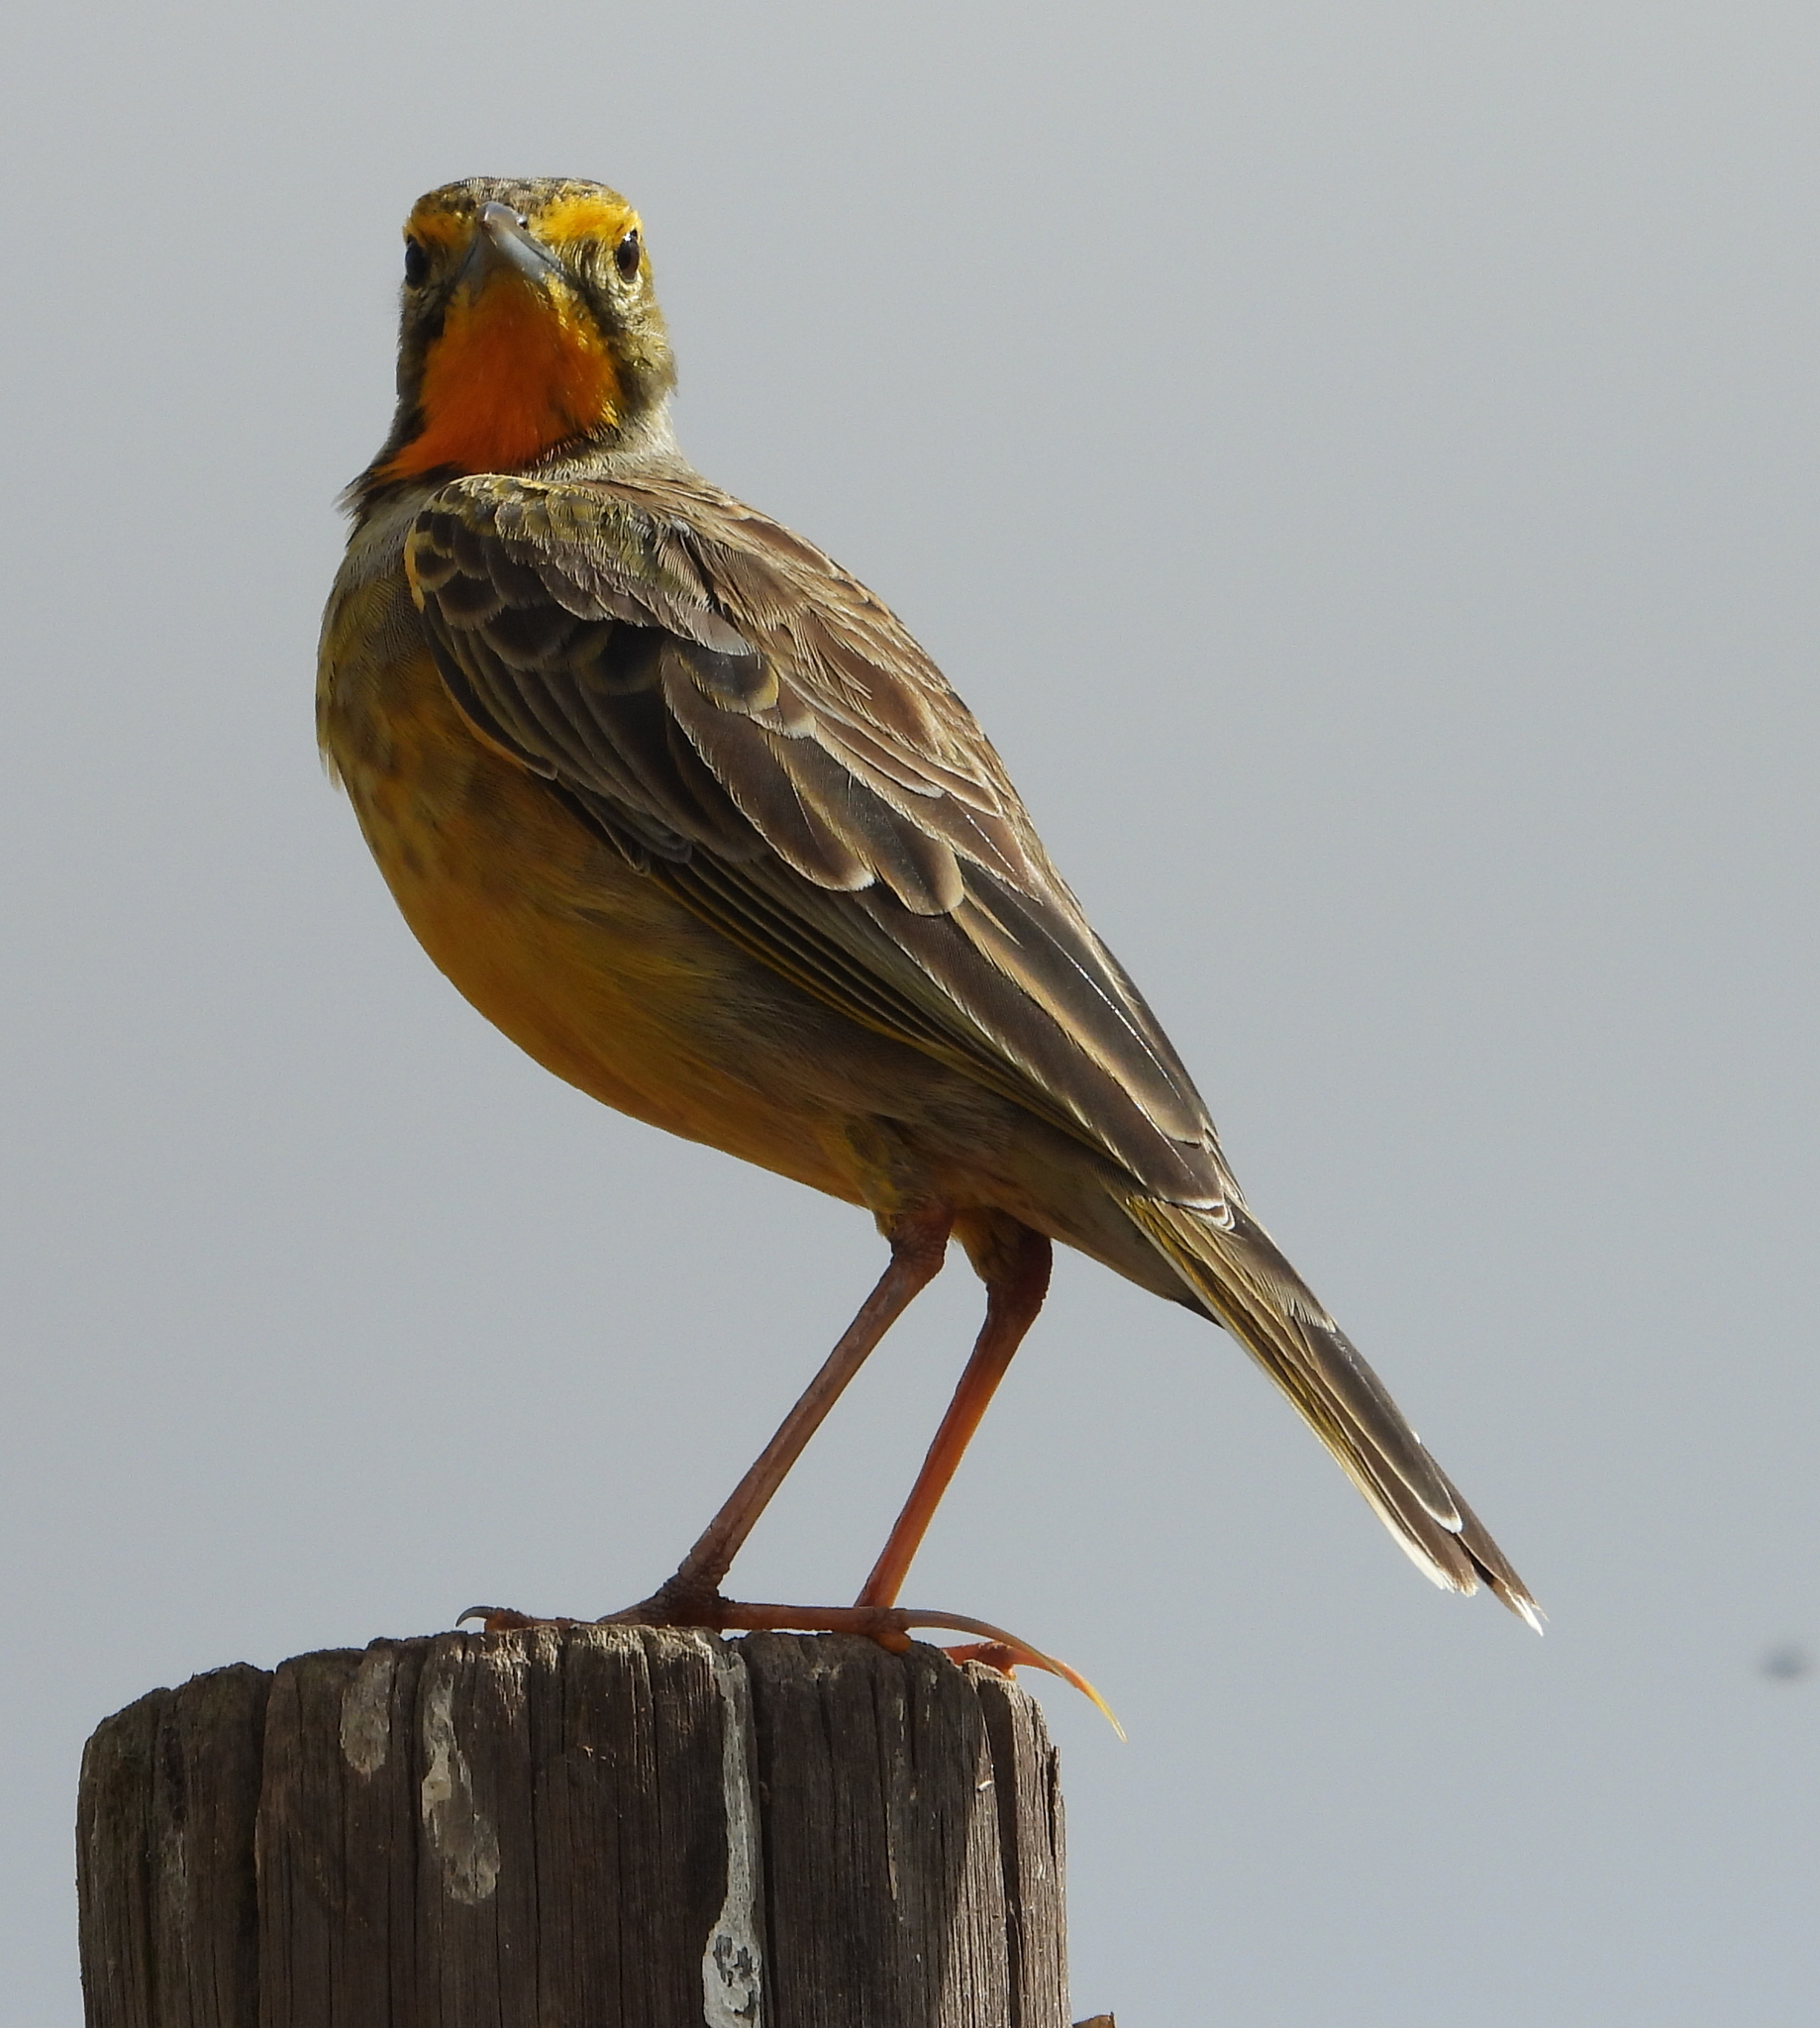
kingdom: Animalia
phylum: Chordata
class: Aves
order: Passeriformes
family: Motacillidae
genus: Macronyx
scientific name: Macronyx capensis
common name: Cape longclaw
